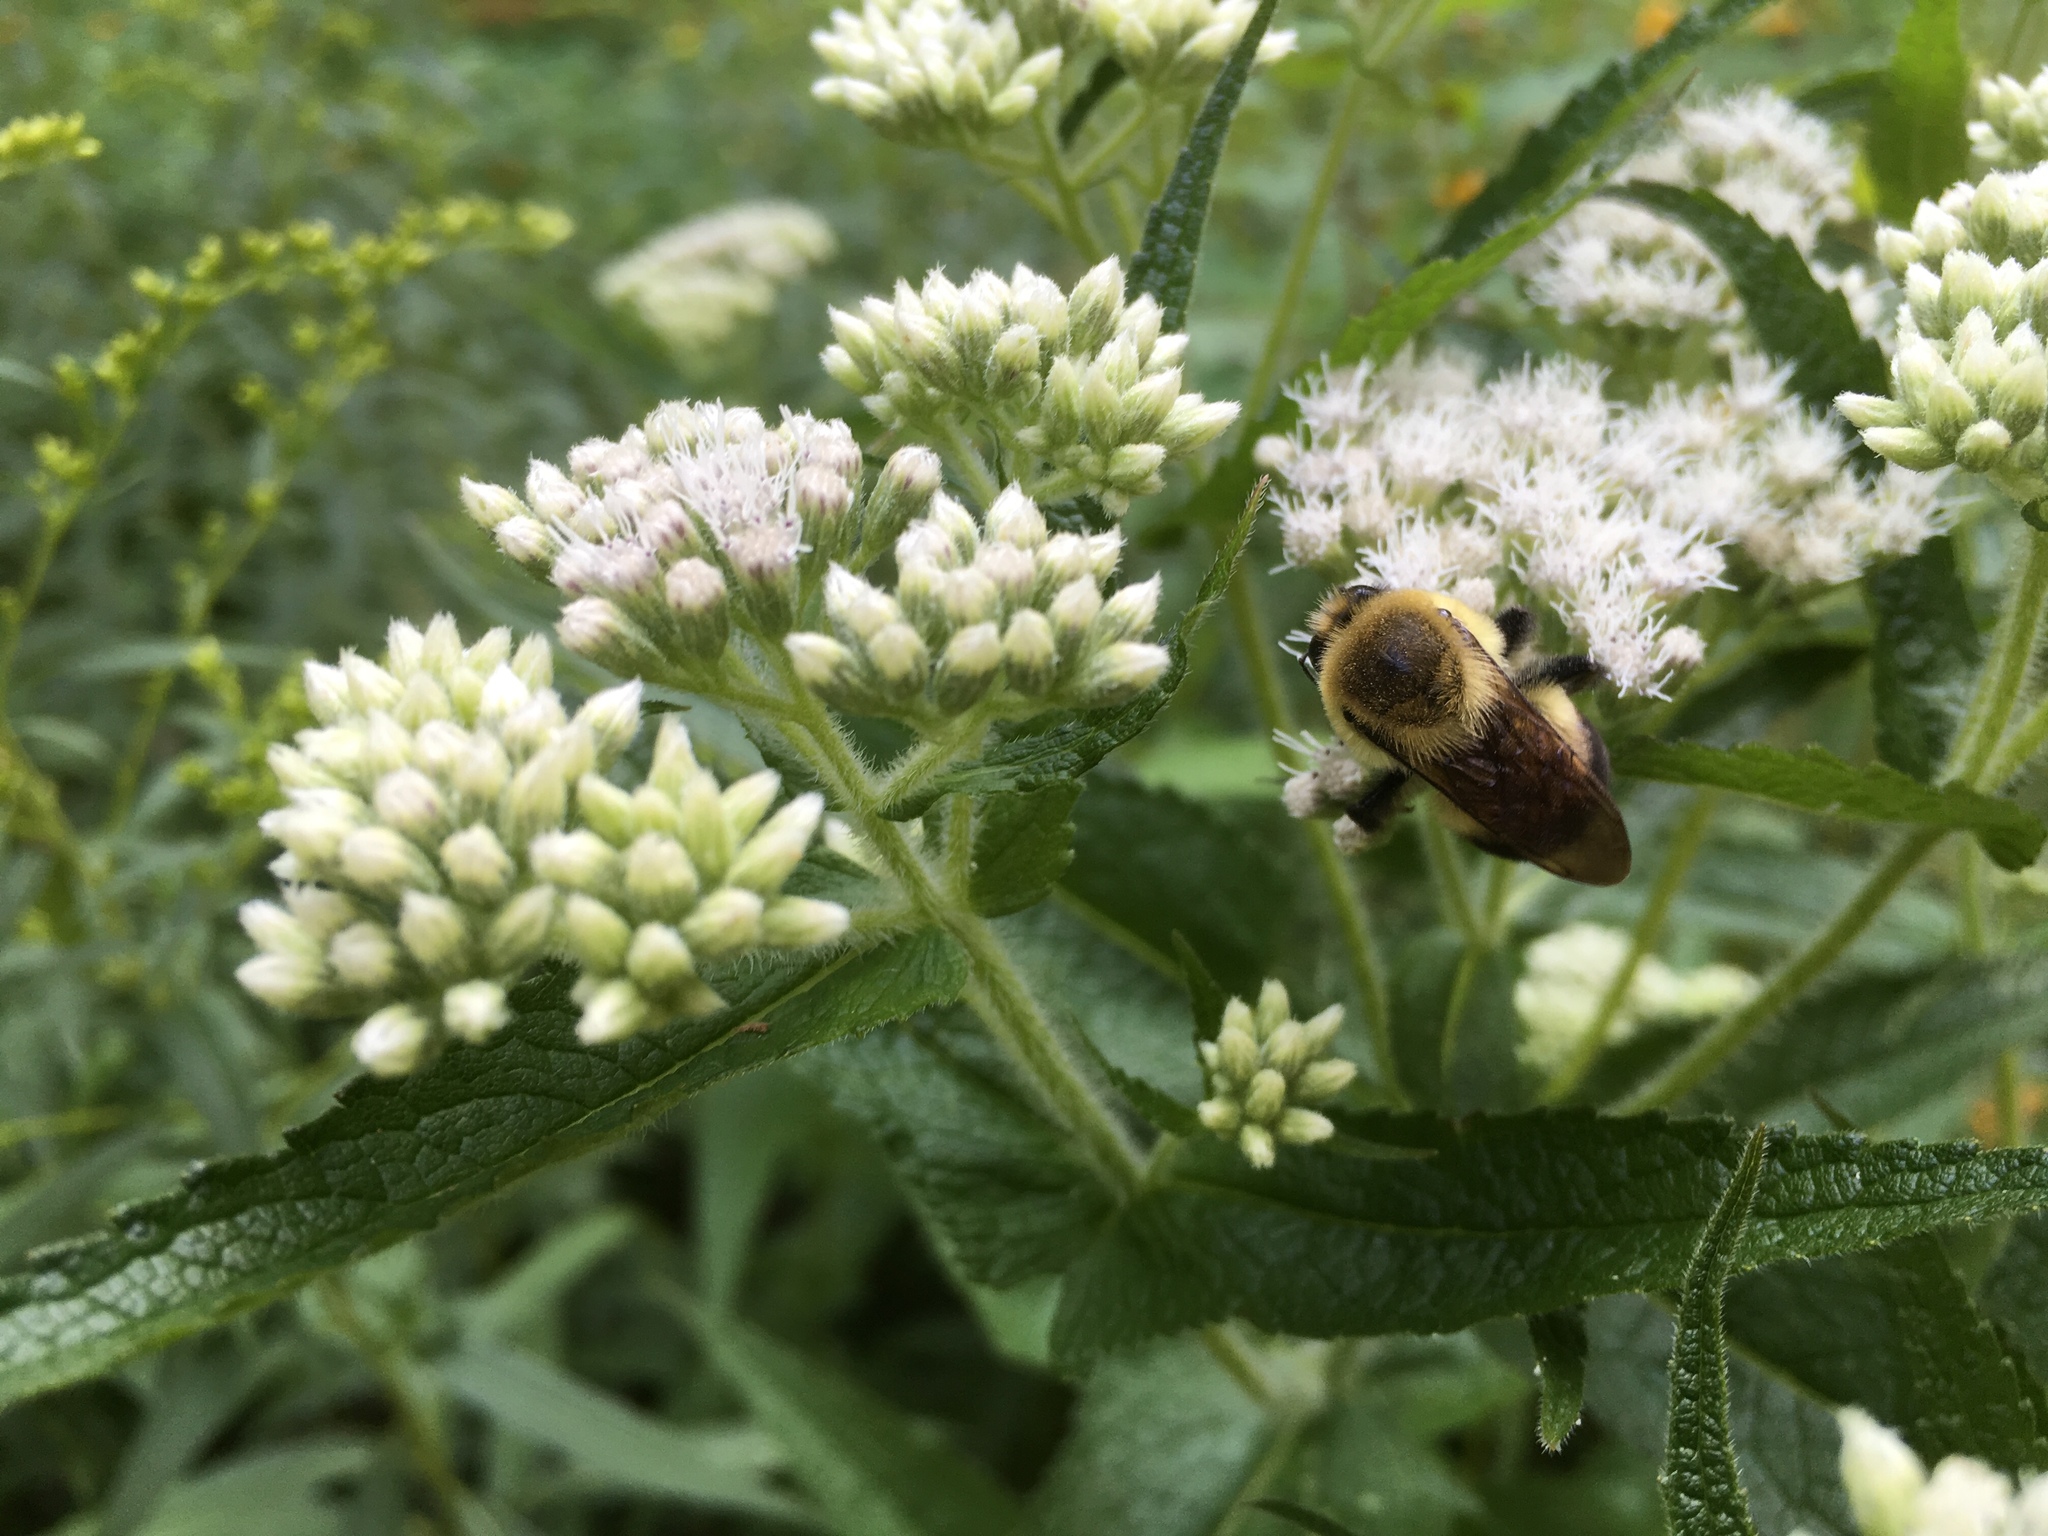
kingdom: Animalia
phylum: Arthropoda
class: Insecta
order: Hymenoptera
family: Apidae
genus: Bombus
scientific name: Bombus griseocollis
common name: Brown-belted bumble bee
